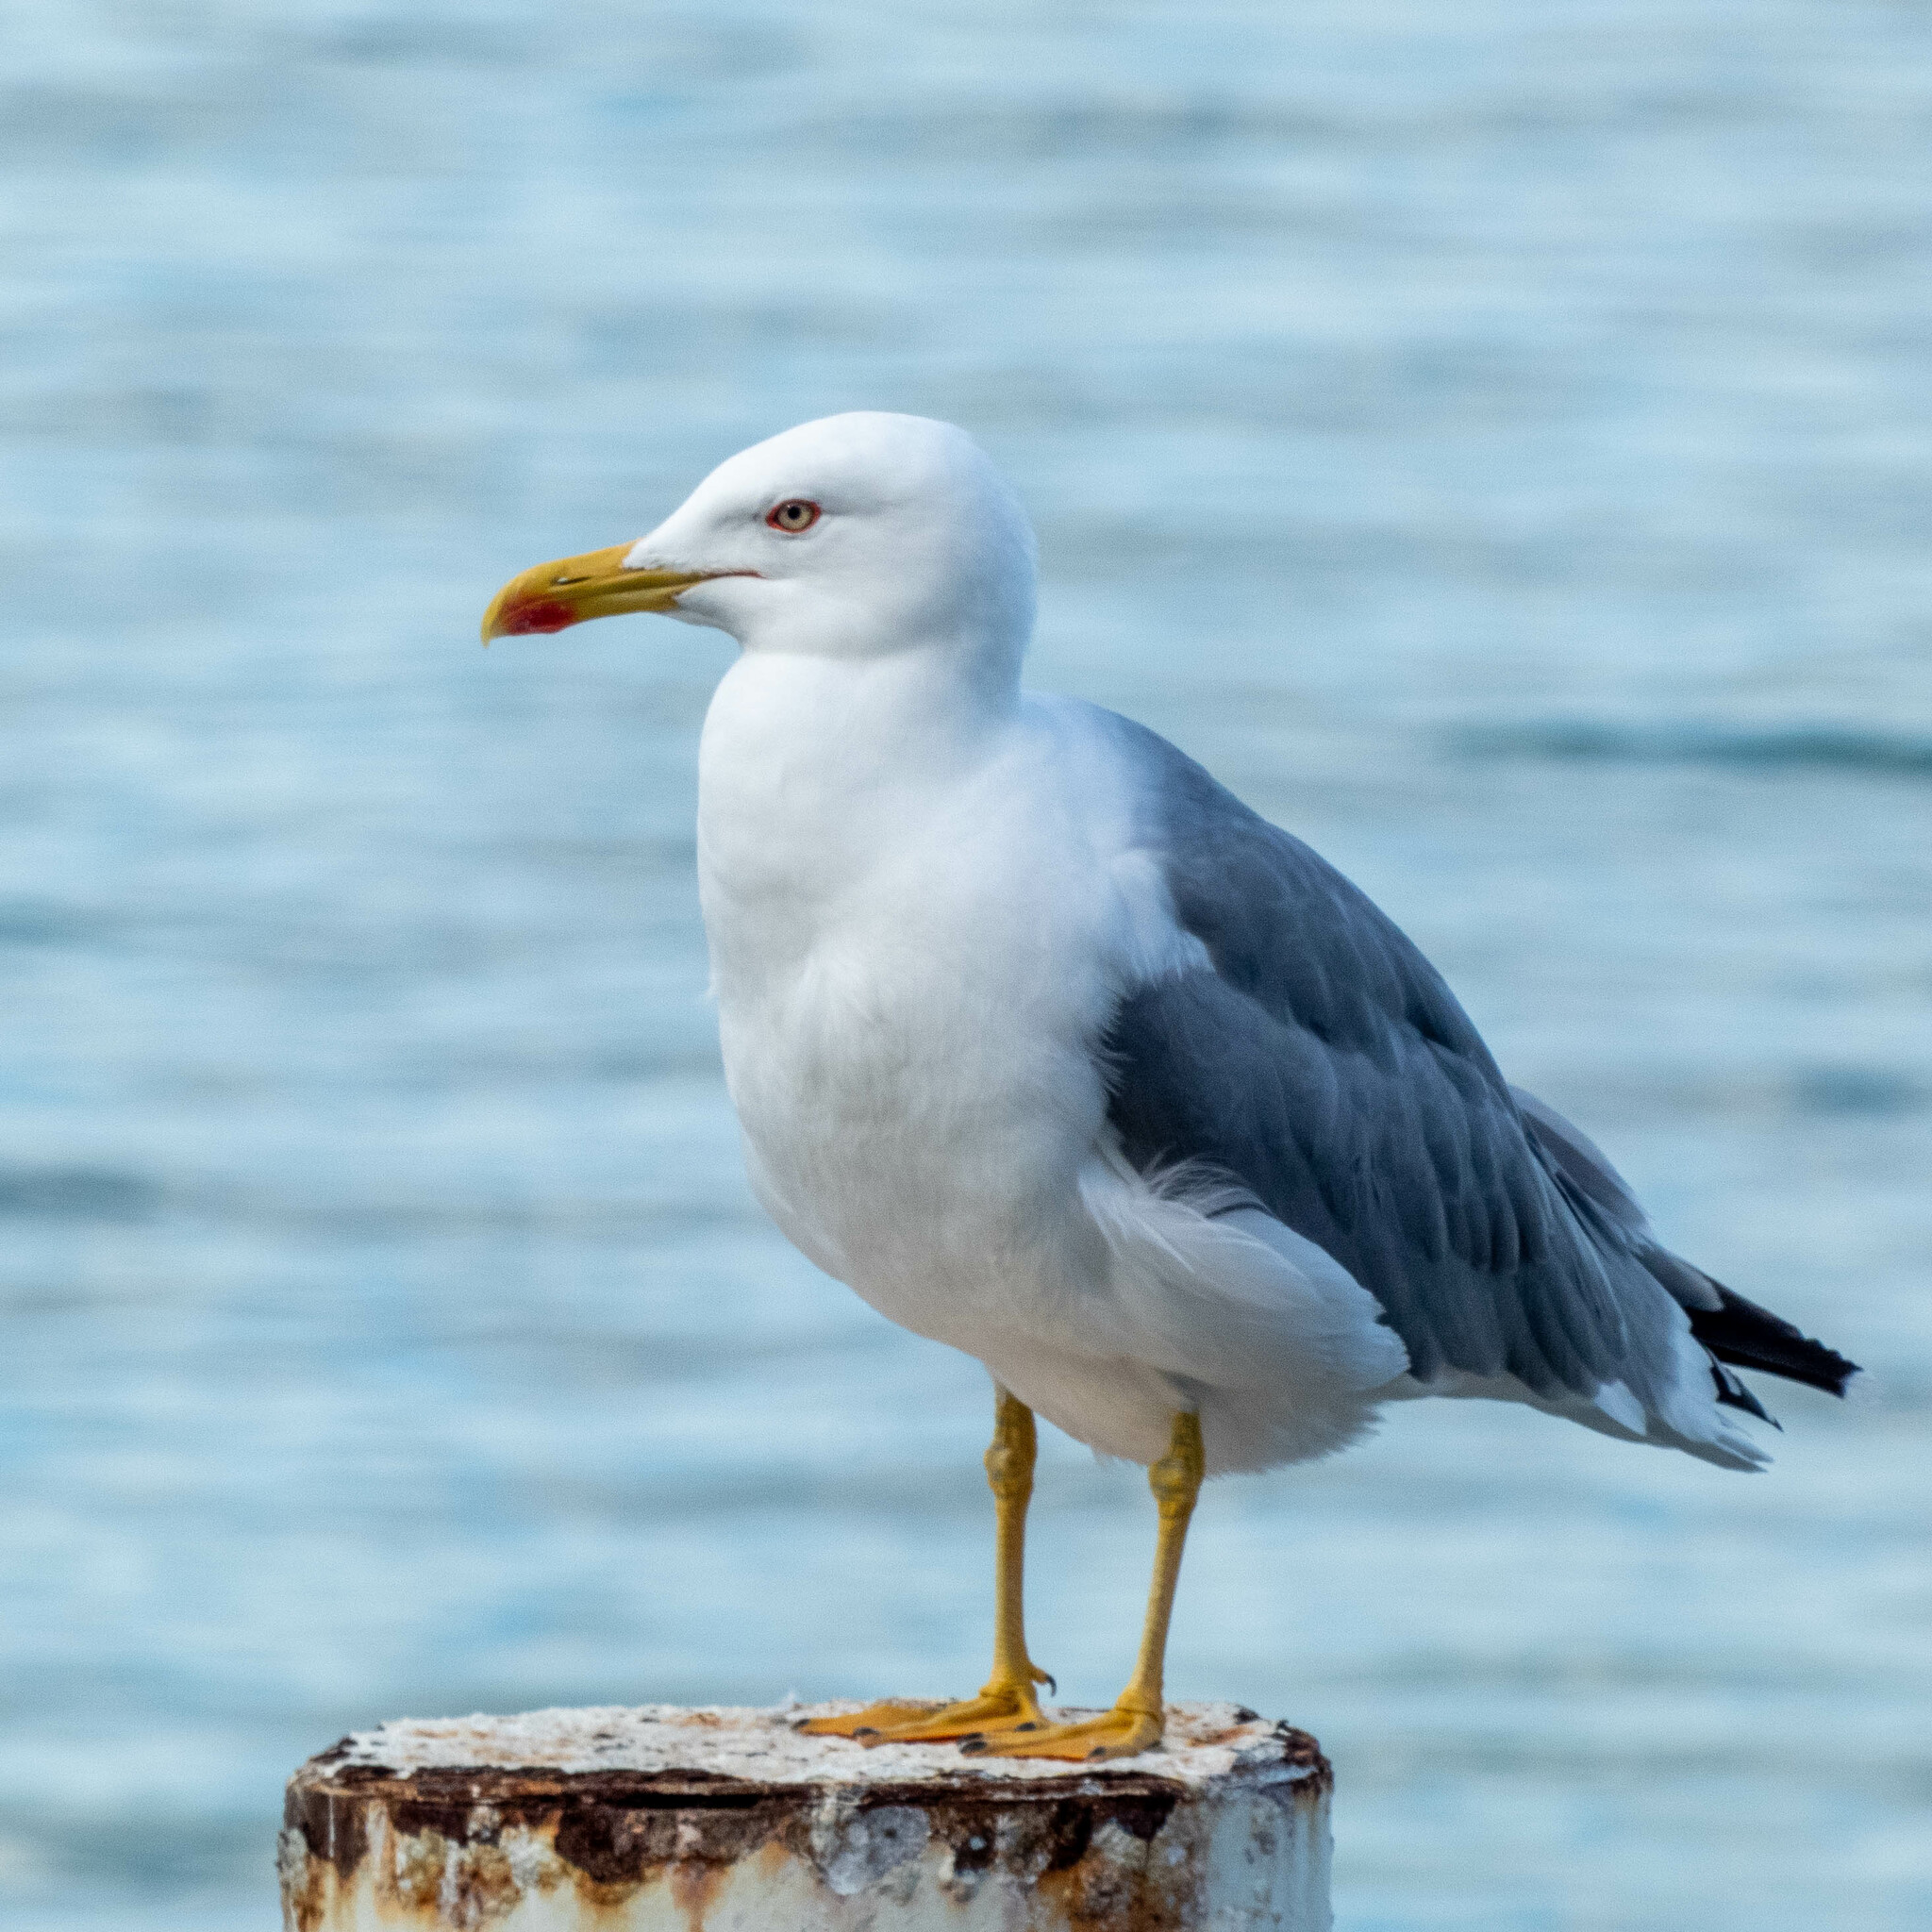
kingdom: Animalia
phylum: Chordata
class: Aves
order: Charadriiformes
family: Laridae
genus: Larus
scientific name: Larus michahellis
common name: Yellow-legged gull
